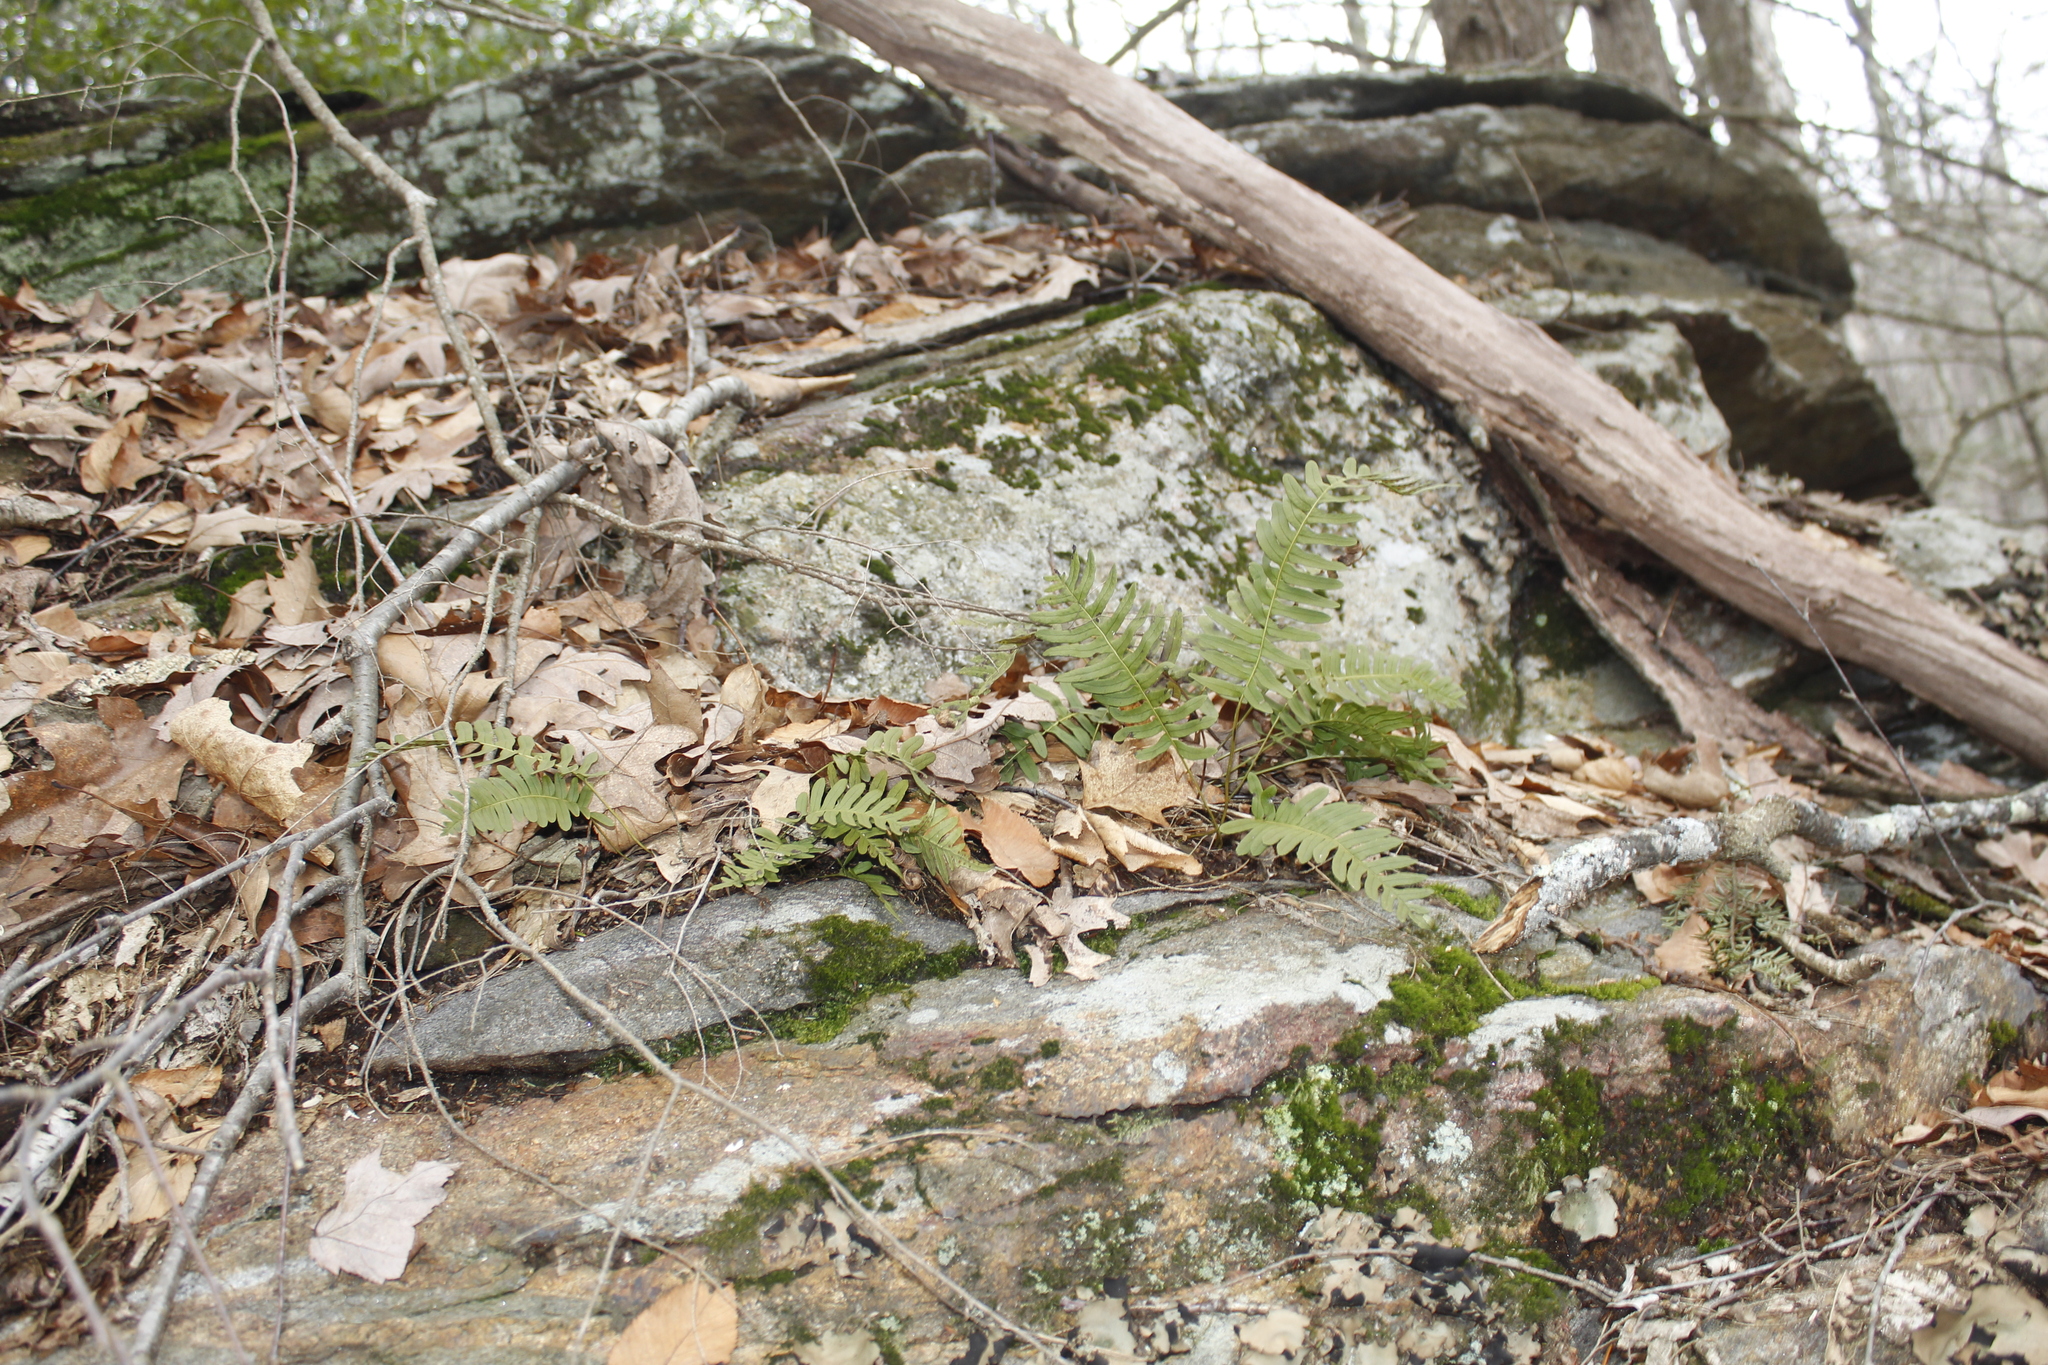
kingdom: Plantae
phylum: Tracheophyta
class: Polypodiopsida
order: Polypodiales
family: Polypodiaceae
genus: Polypodium
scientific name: Polypodium virginianum
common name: American wall fern
